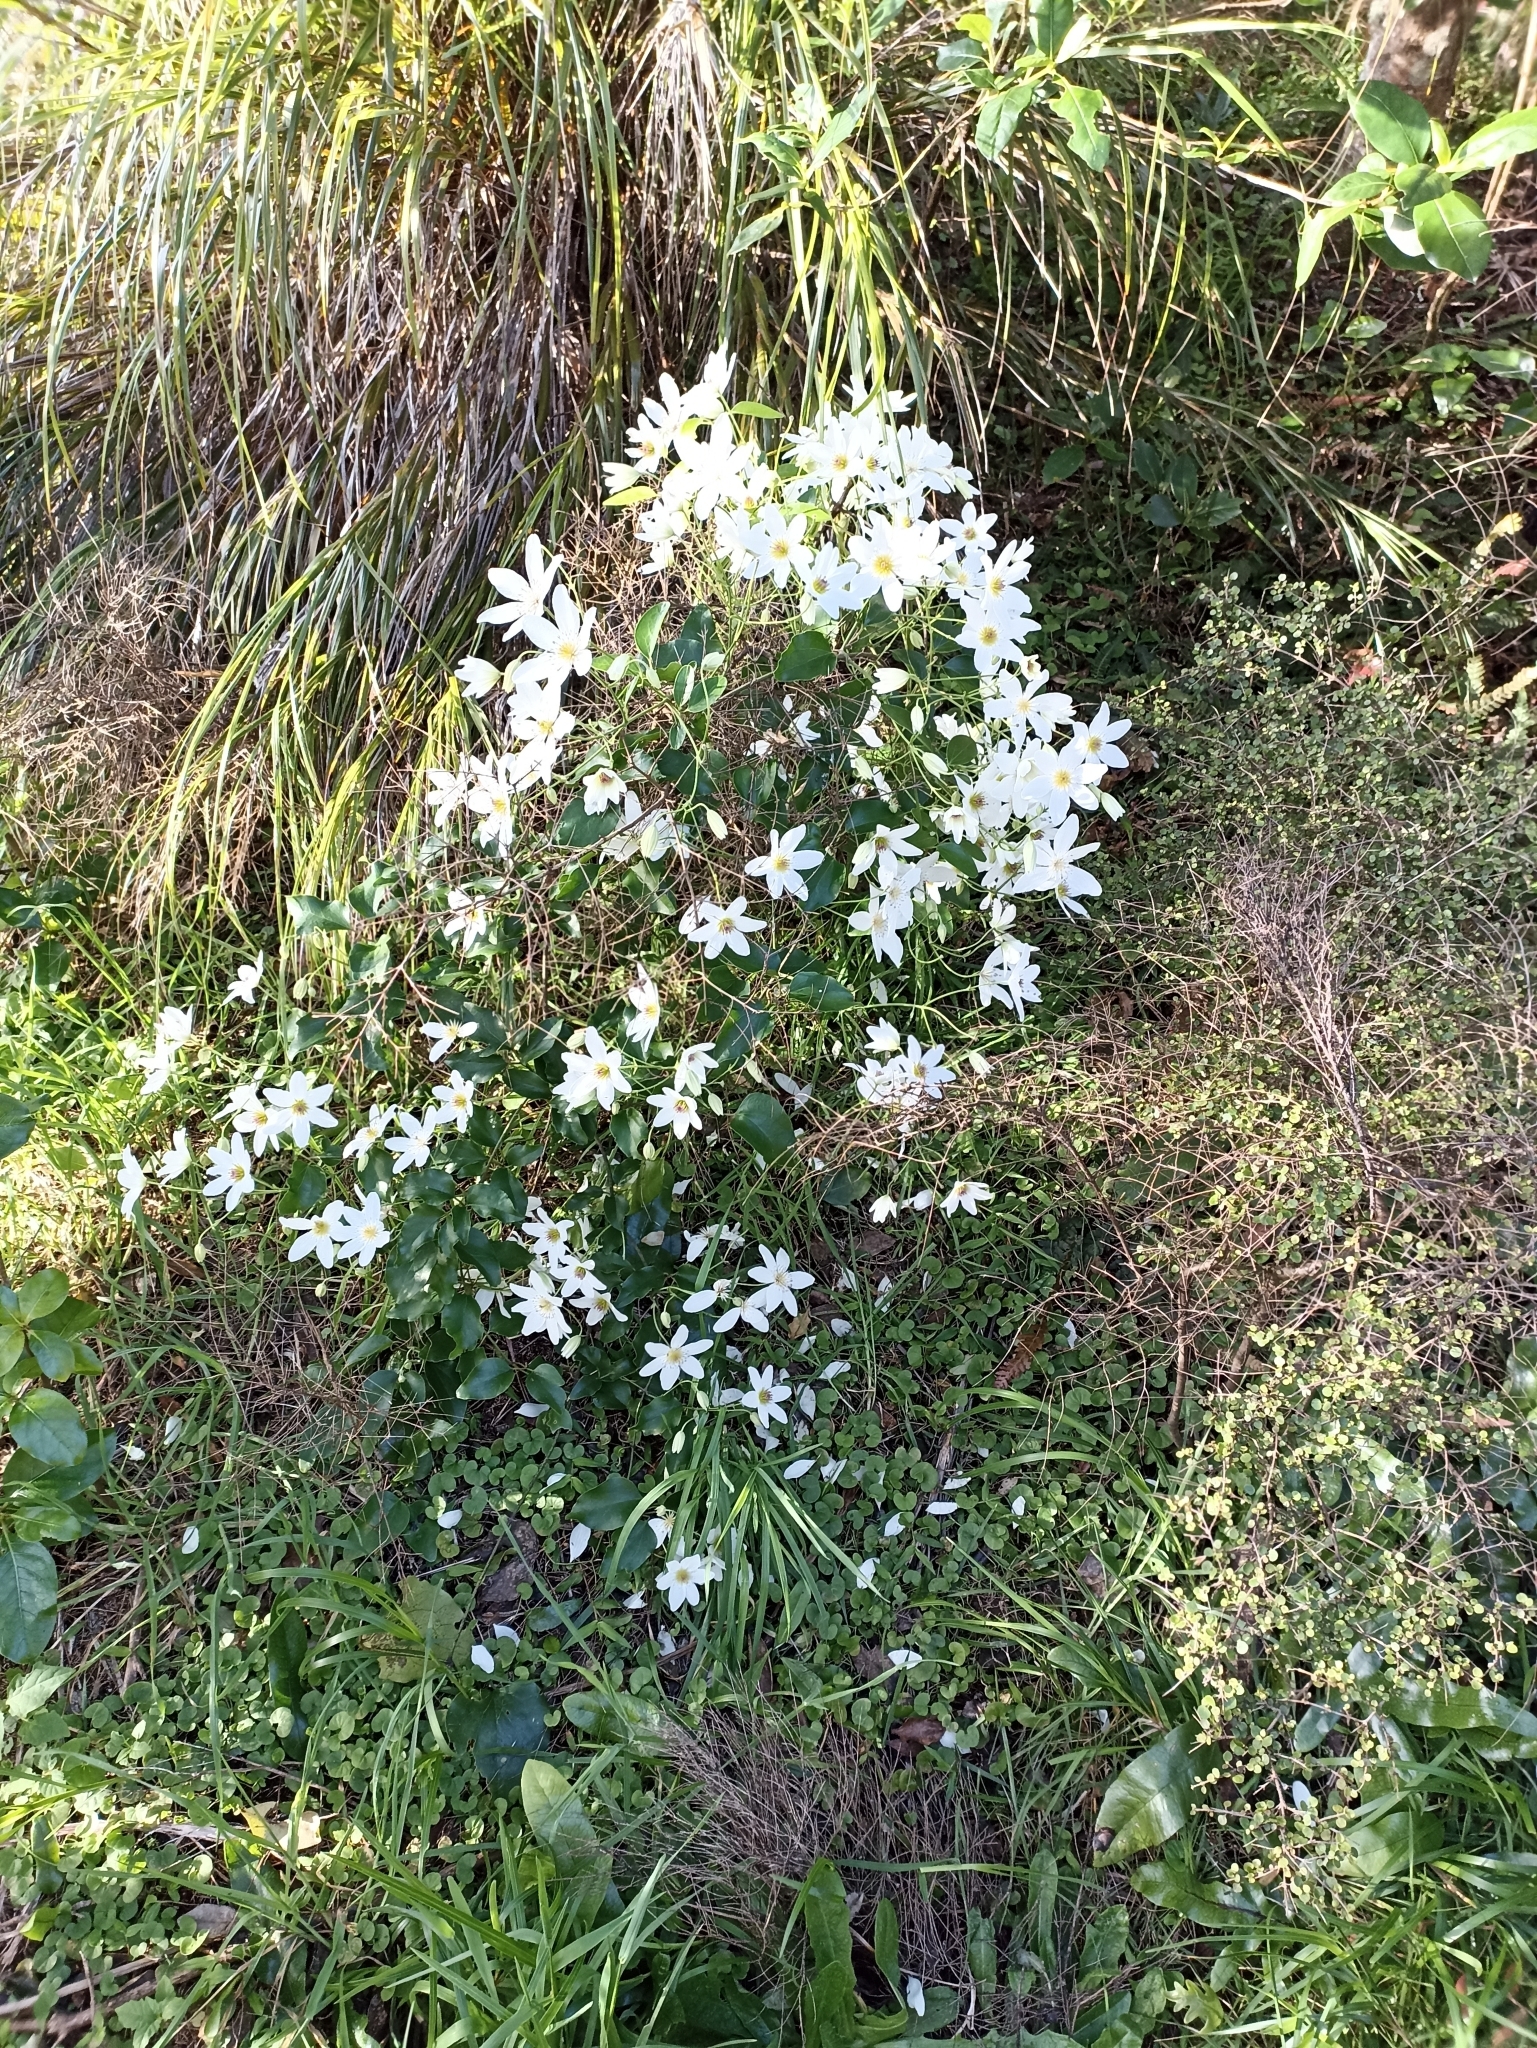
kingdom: Plantae
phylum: Tracheophyta
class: Magnoliopsida
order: Ranunculales
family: Ranunculaceae
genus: Clematis
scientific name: Clematis paniculata
